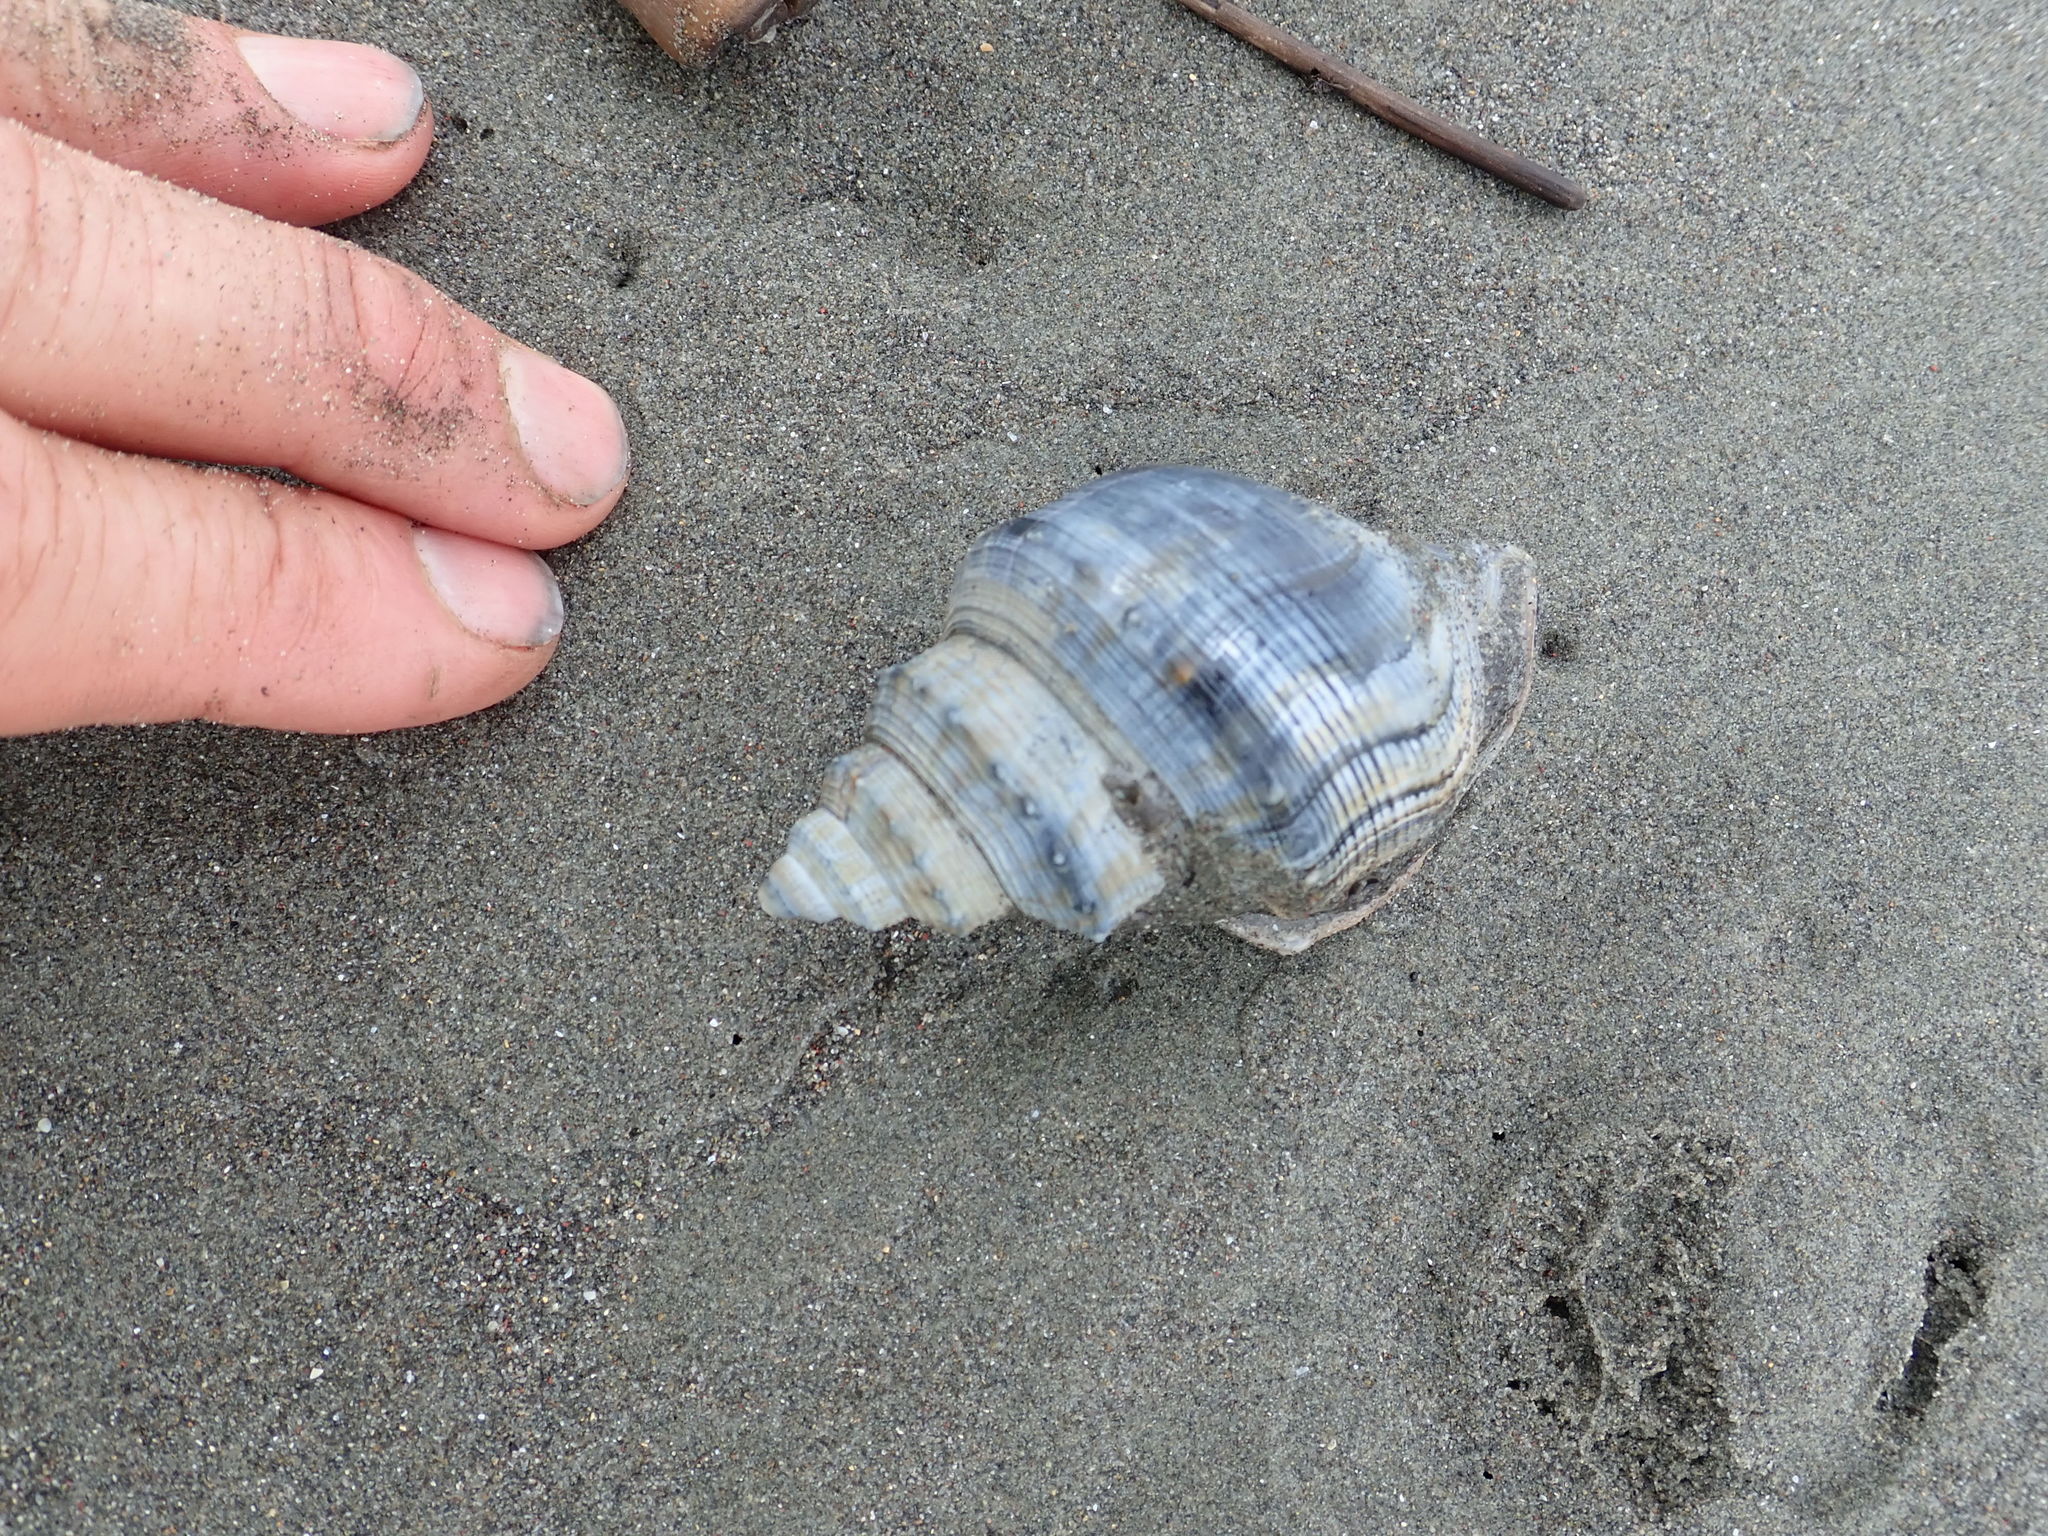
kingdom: Animalia
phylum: Mollusca
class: Gastropoda
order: Littorinimorpha
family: Struthiolariidae
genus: Struthiolaria
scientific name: Struthiolaria papulosa
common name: Large ostrich foot
